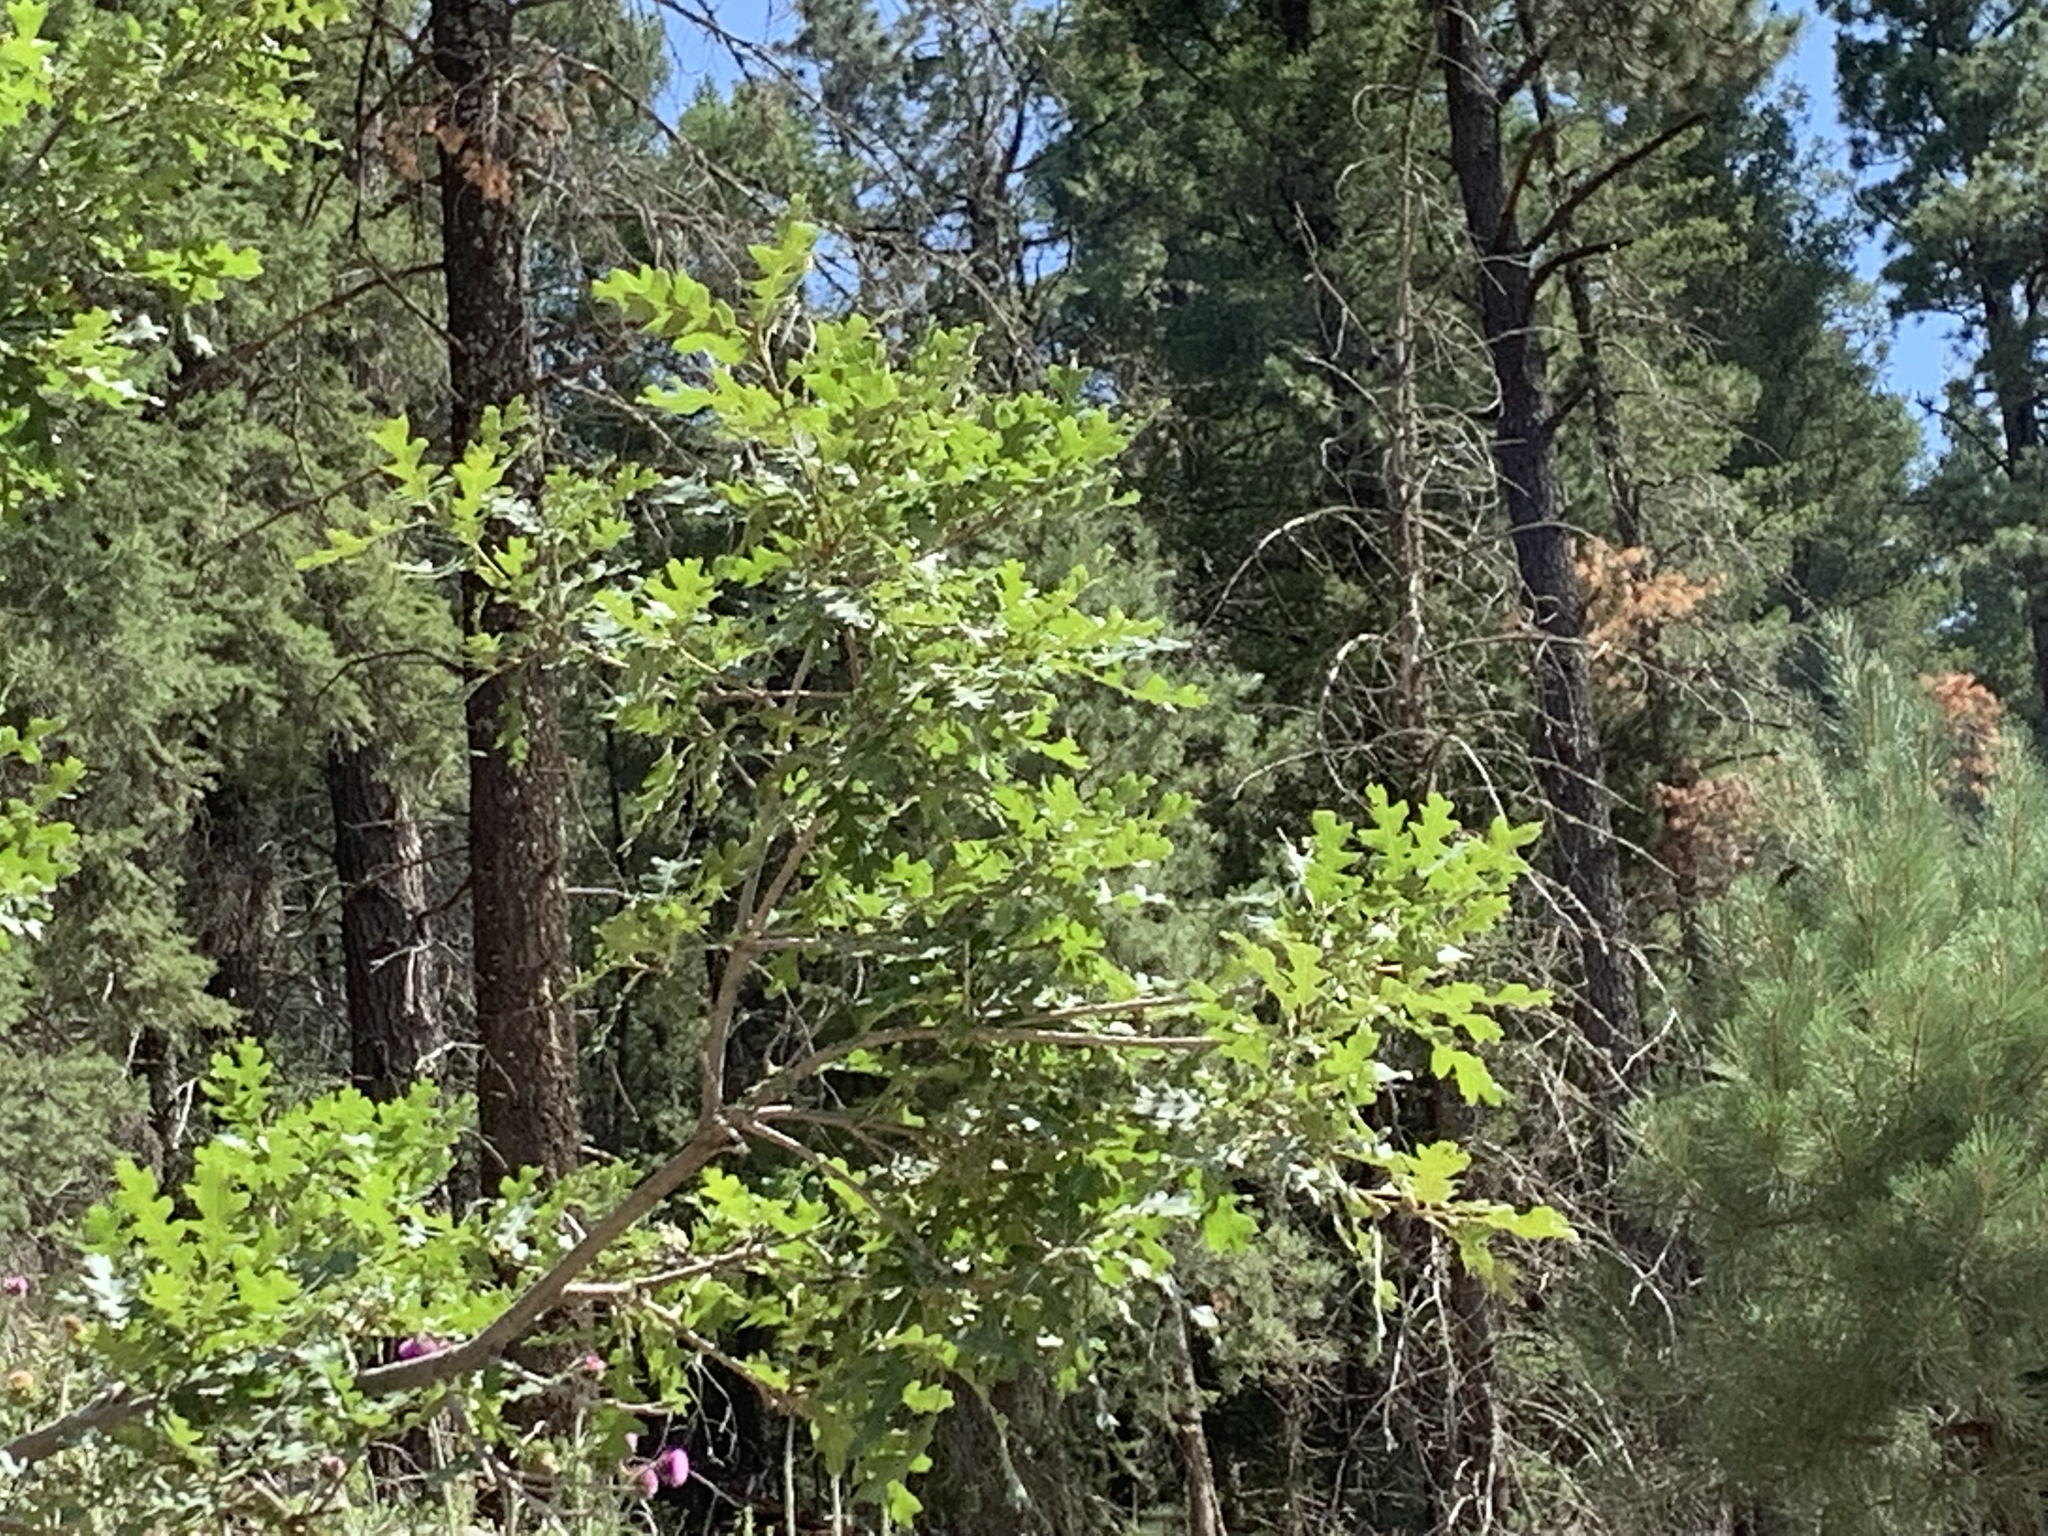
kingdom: Plantae
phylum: Tracheophyta
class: Magnoliopsida
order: Fagales
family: Fagaceae
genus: Quercus
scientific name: Quercus gambelii
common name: Gambel oak
